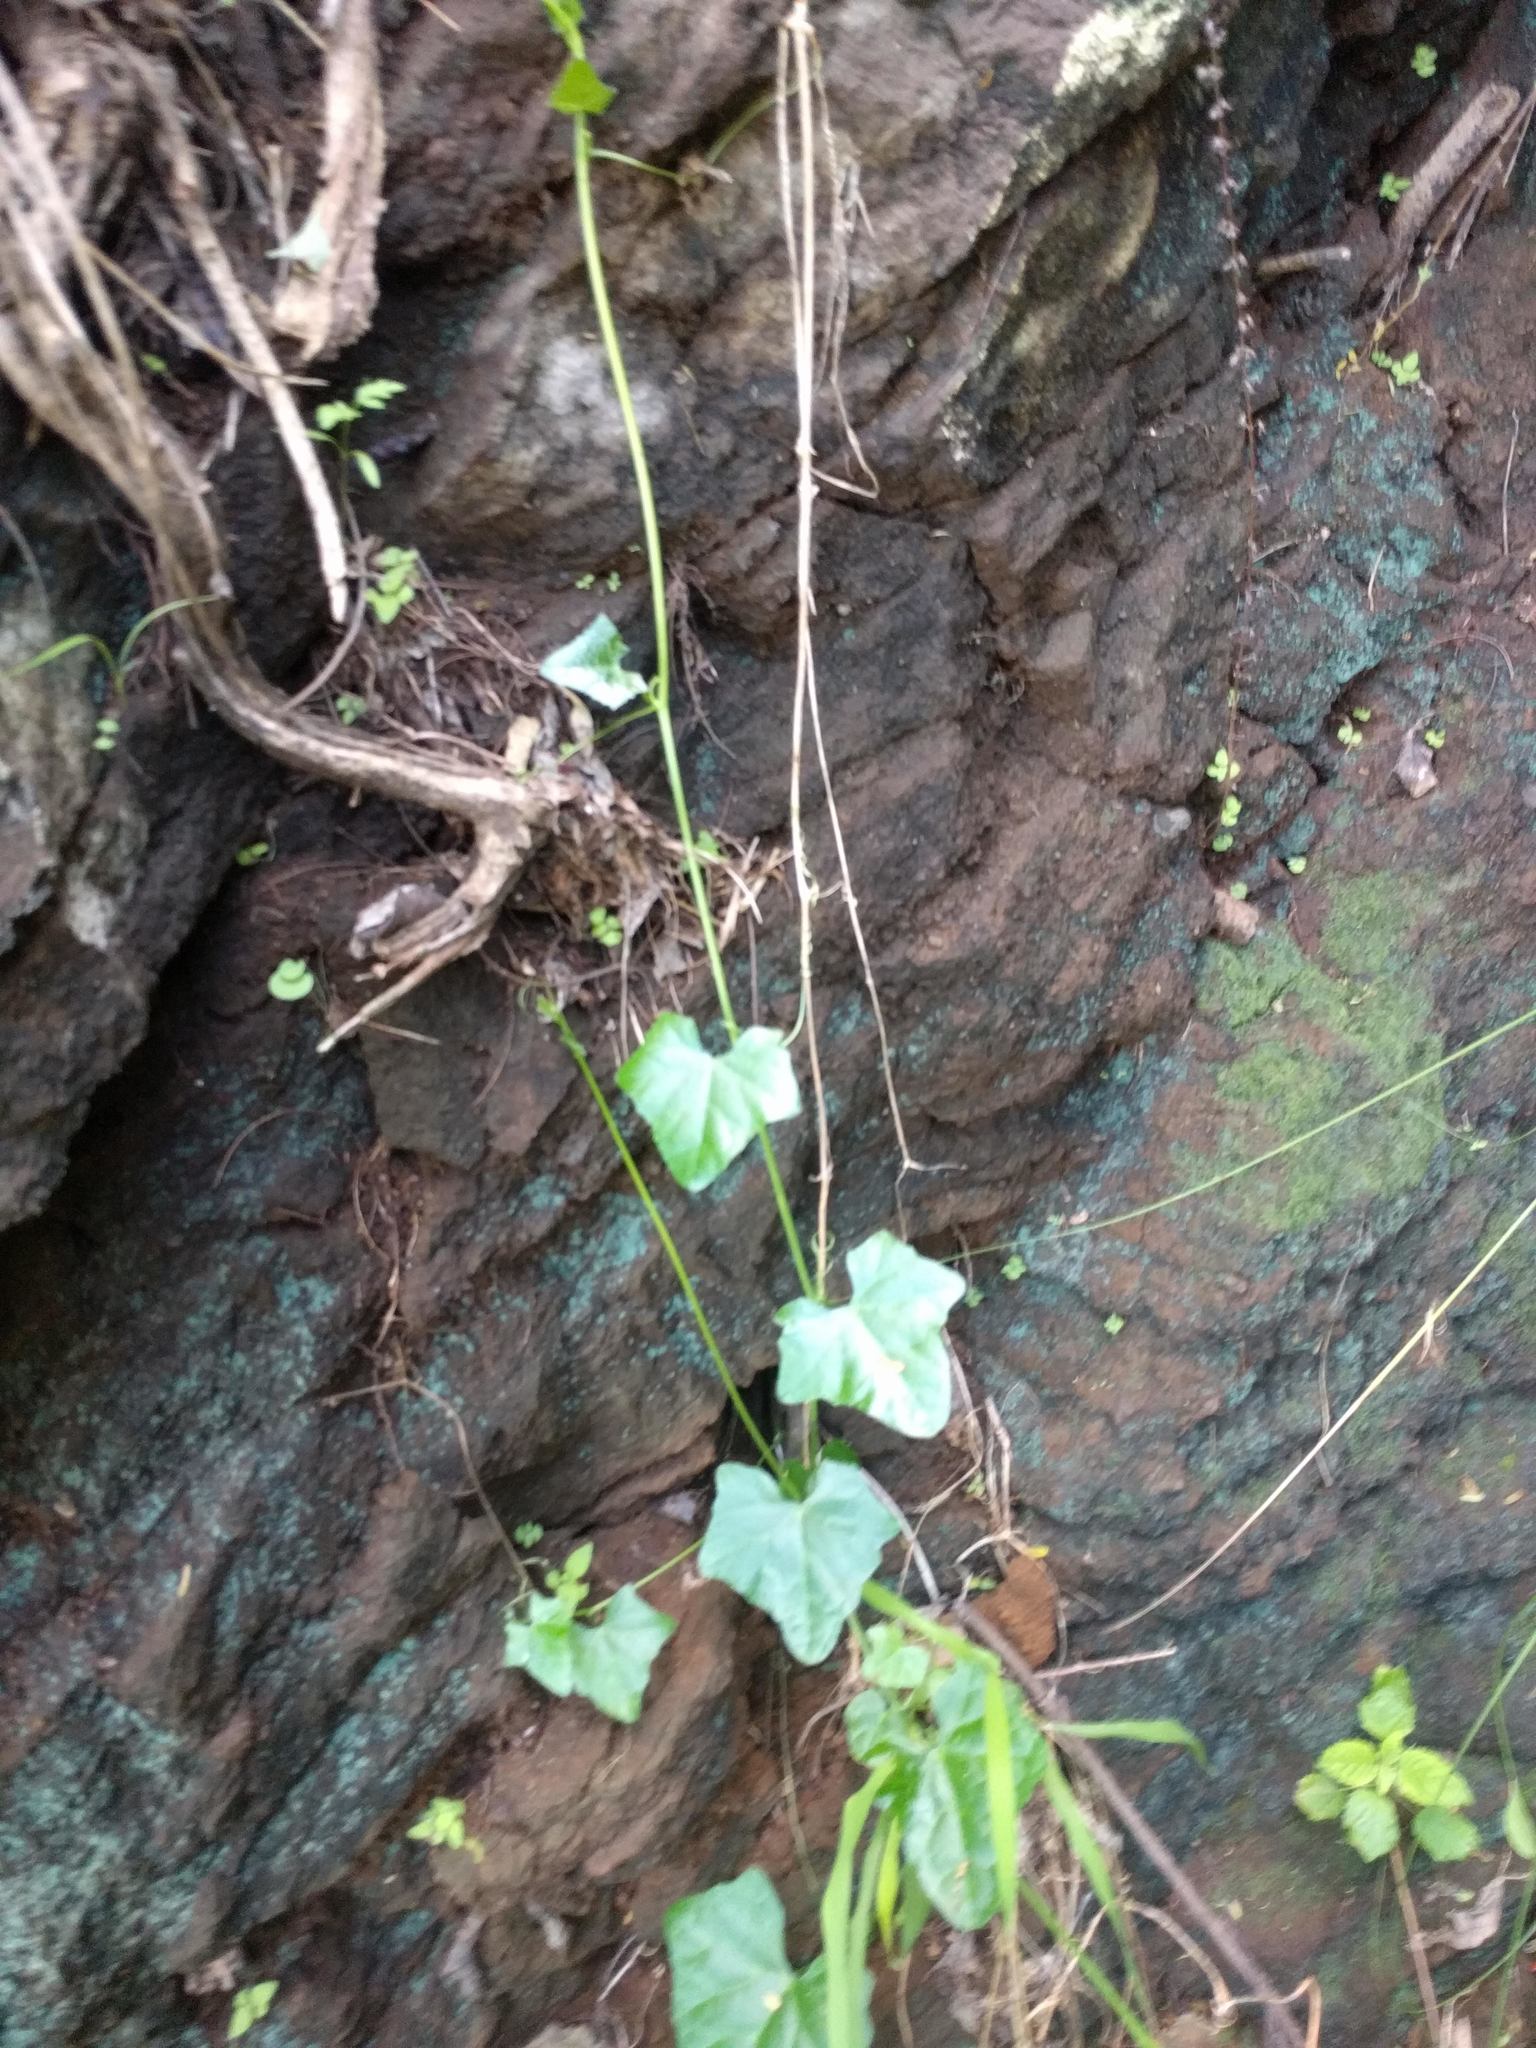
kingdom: Plantae
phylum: Tracheophyta
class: Magnoliopsida
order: Cucurbitales
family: Cucurbitaceae
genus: Coccinia
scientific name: Coccinia grandis
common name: Ivy gourd
